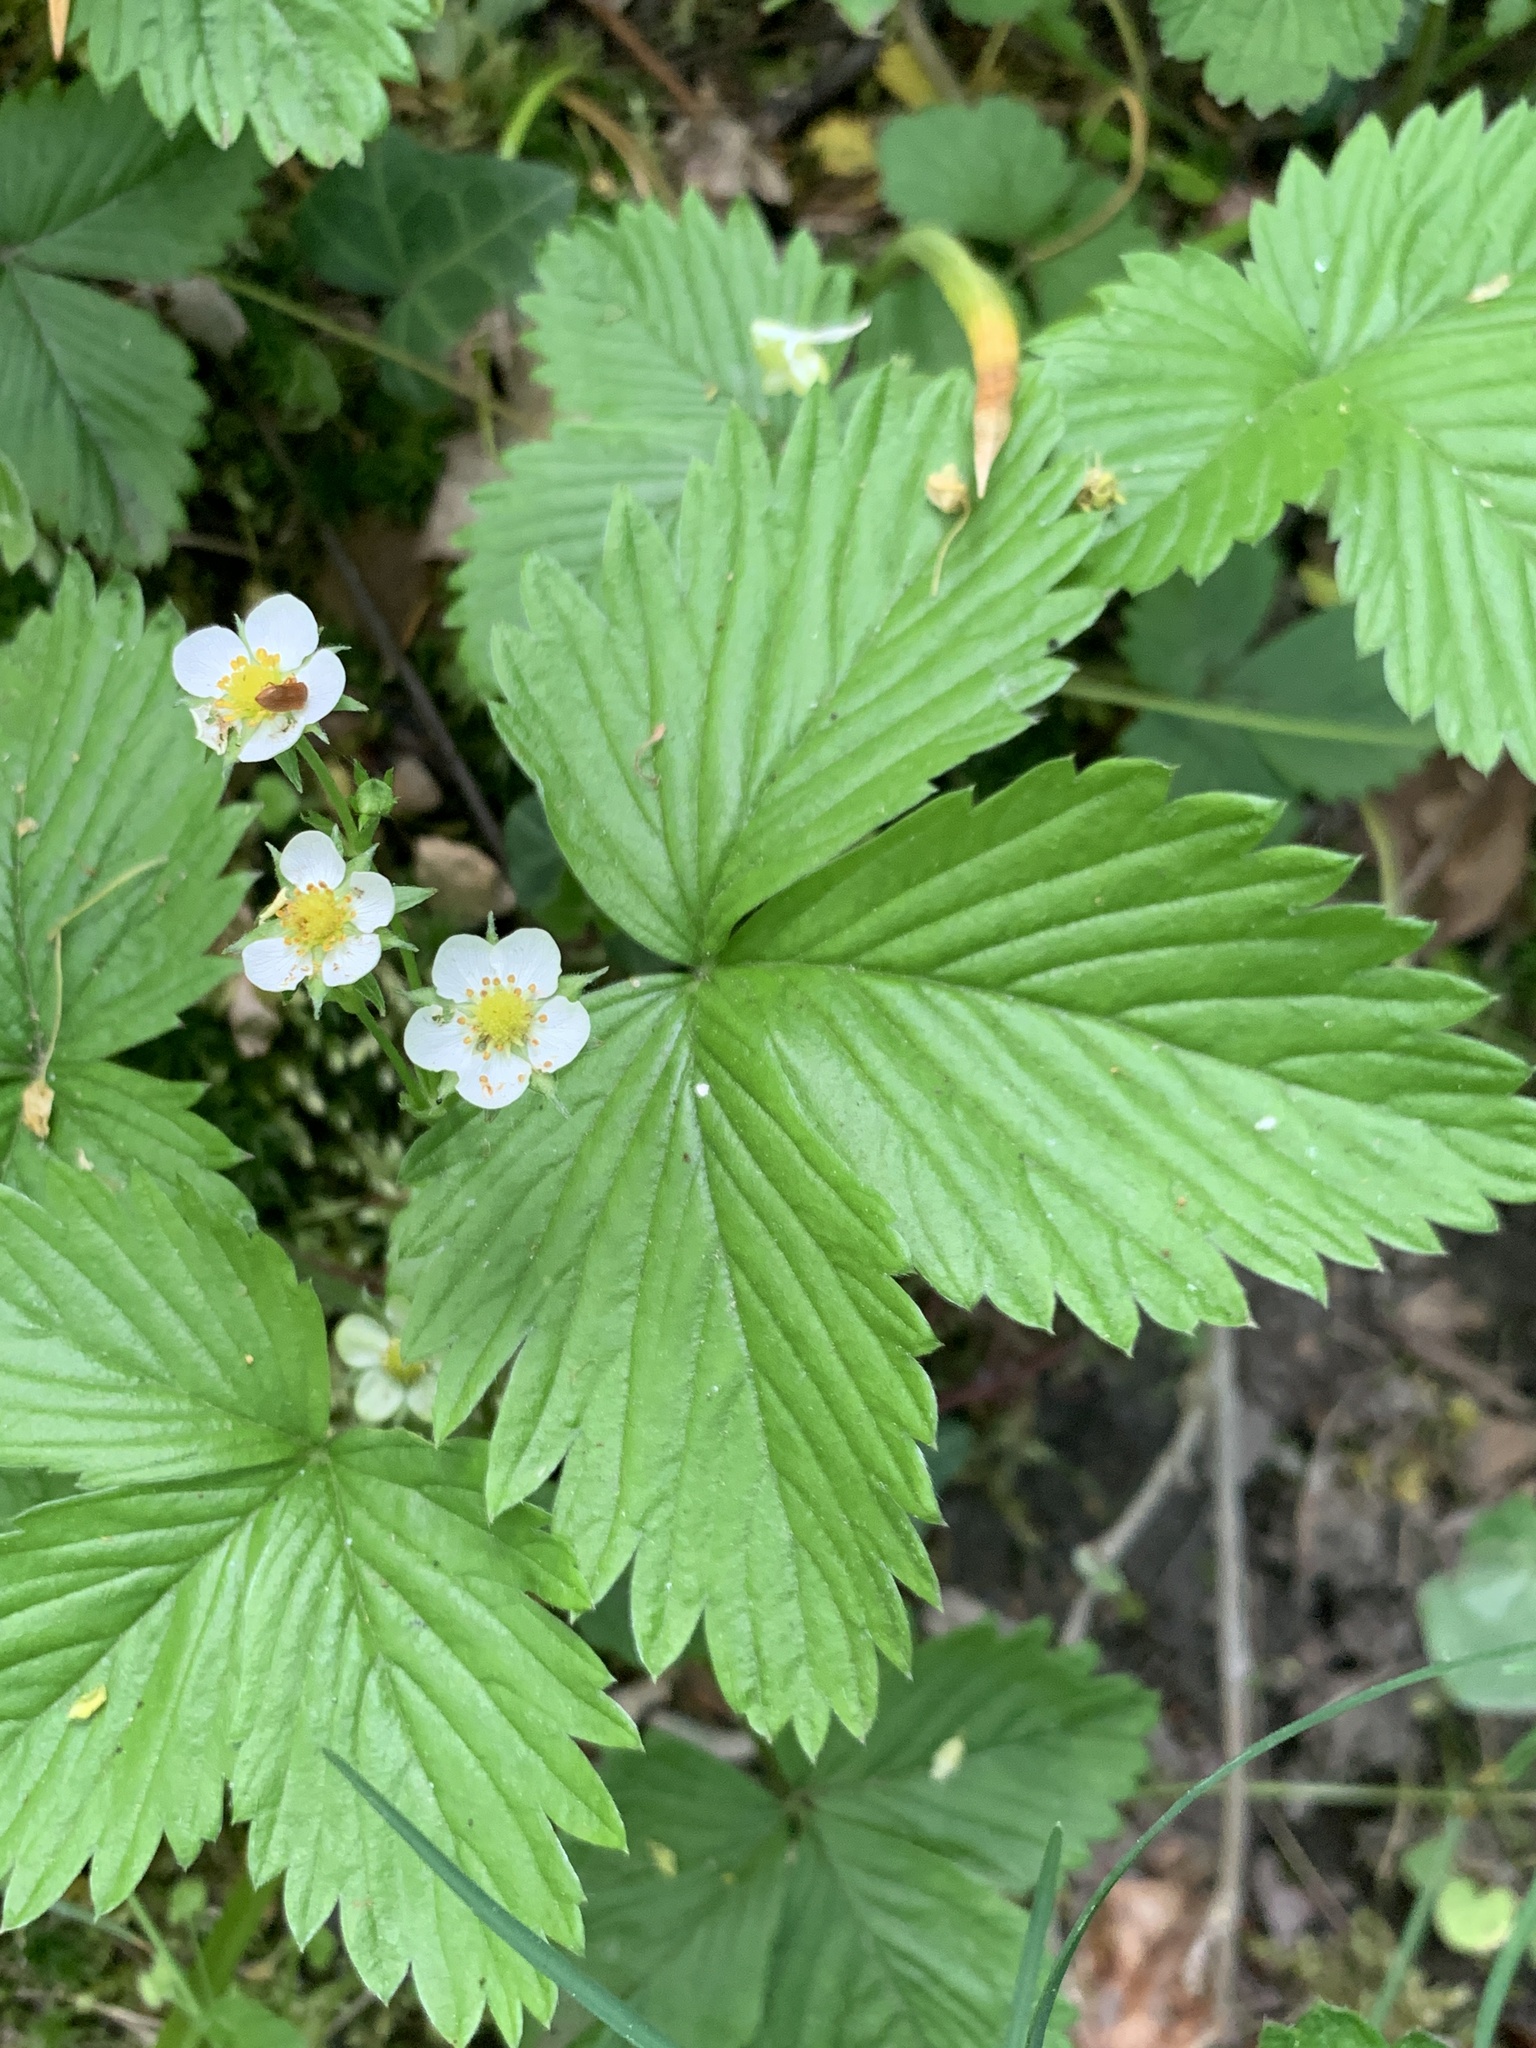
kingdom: Plantae
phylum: Tracheophyta
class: Magnoliopsida
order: Rosales
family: Rosaceae
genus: Fragaria
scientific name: Fragaria vesca
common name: Wild strawberry
